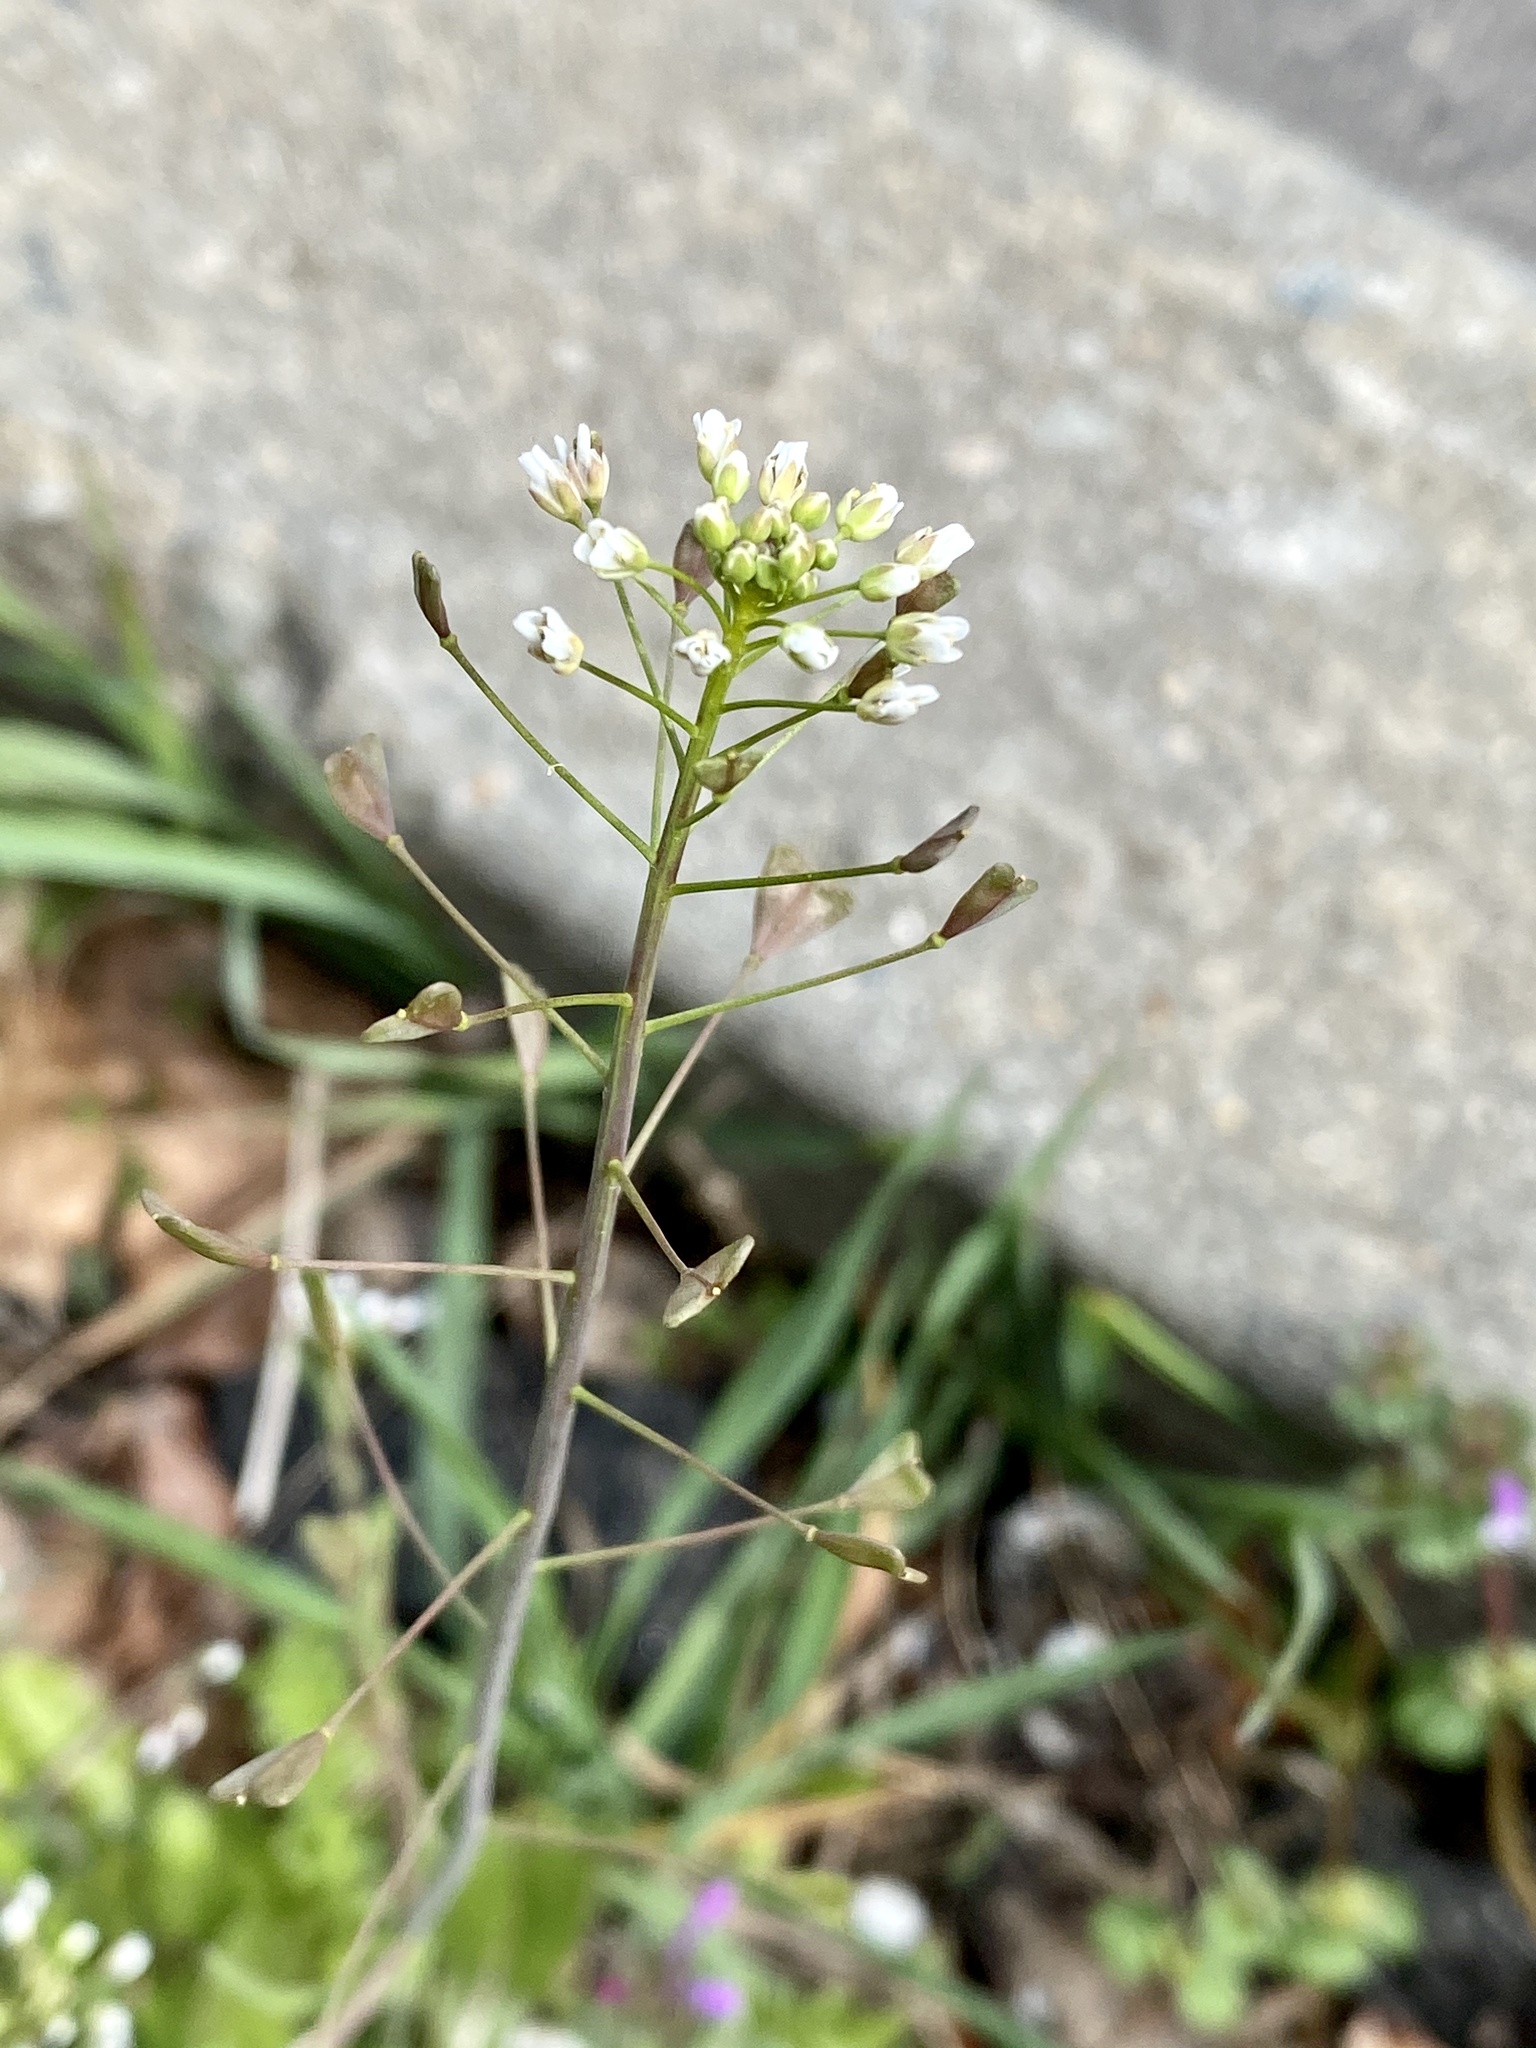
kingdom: Plantae
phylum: Tracheophyta
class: Magnoliopsida
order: Brassicales
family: Brassicaceae
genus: Capsella
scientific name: Capsella bursa-pastoris
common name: Shepherd's purse
